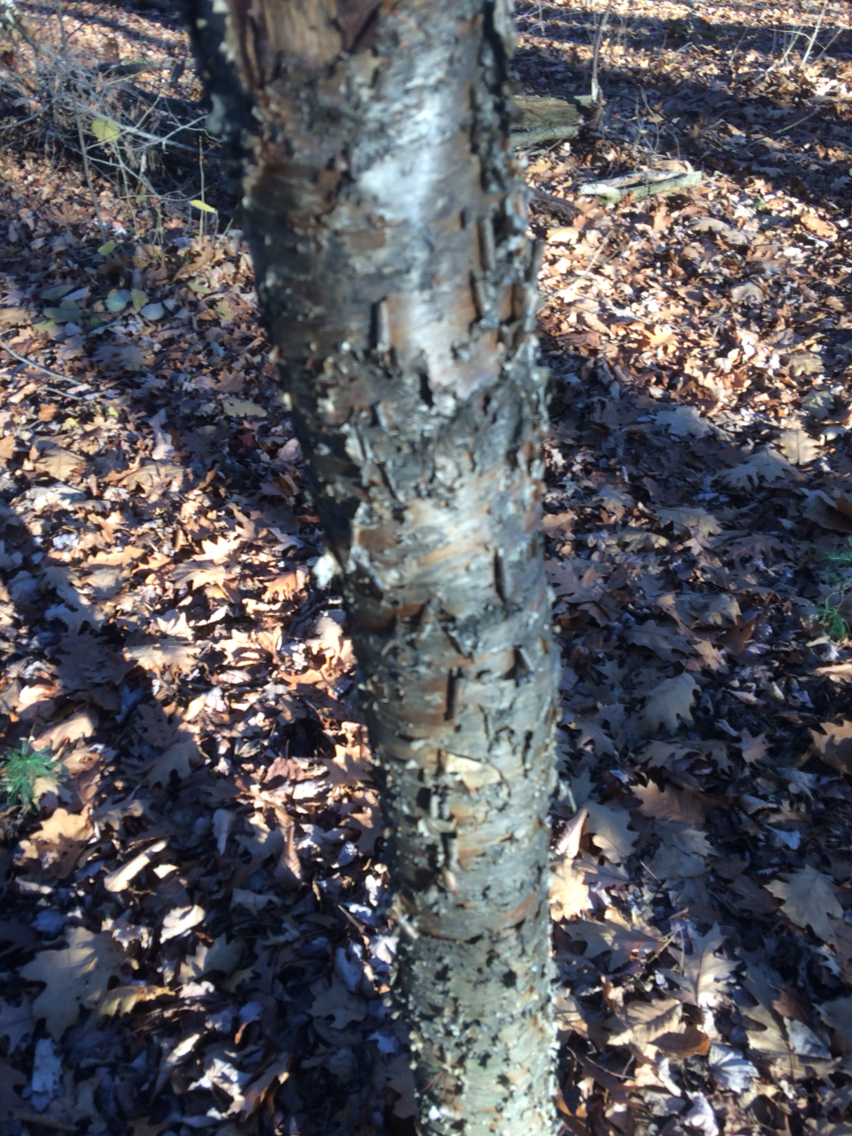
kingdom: Plantae
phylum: Tracheophyta
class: Magnoliopsida
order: Fagales
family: Betulaceae
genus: Betula
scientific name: Betula alleghaniensis
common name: Yellow birch
